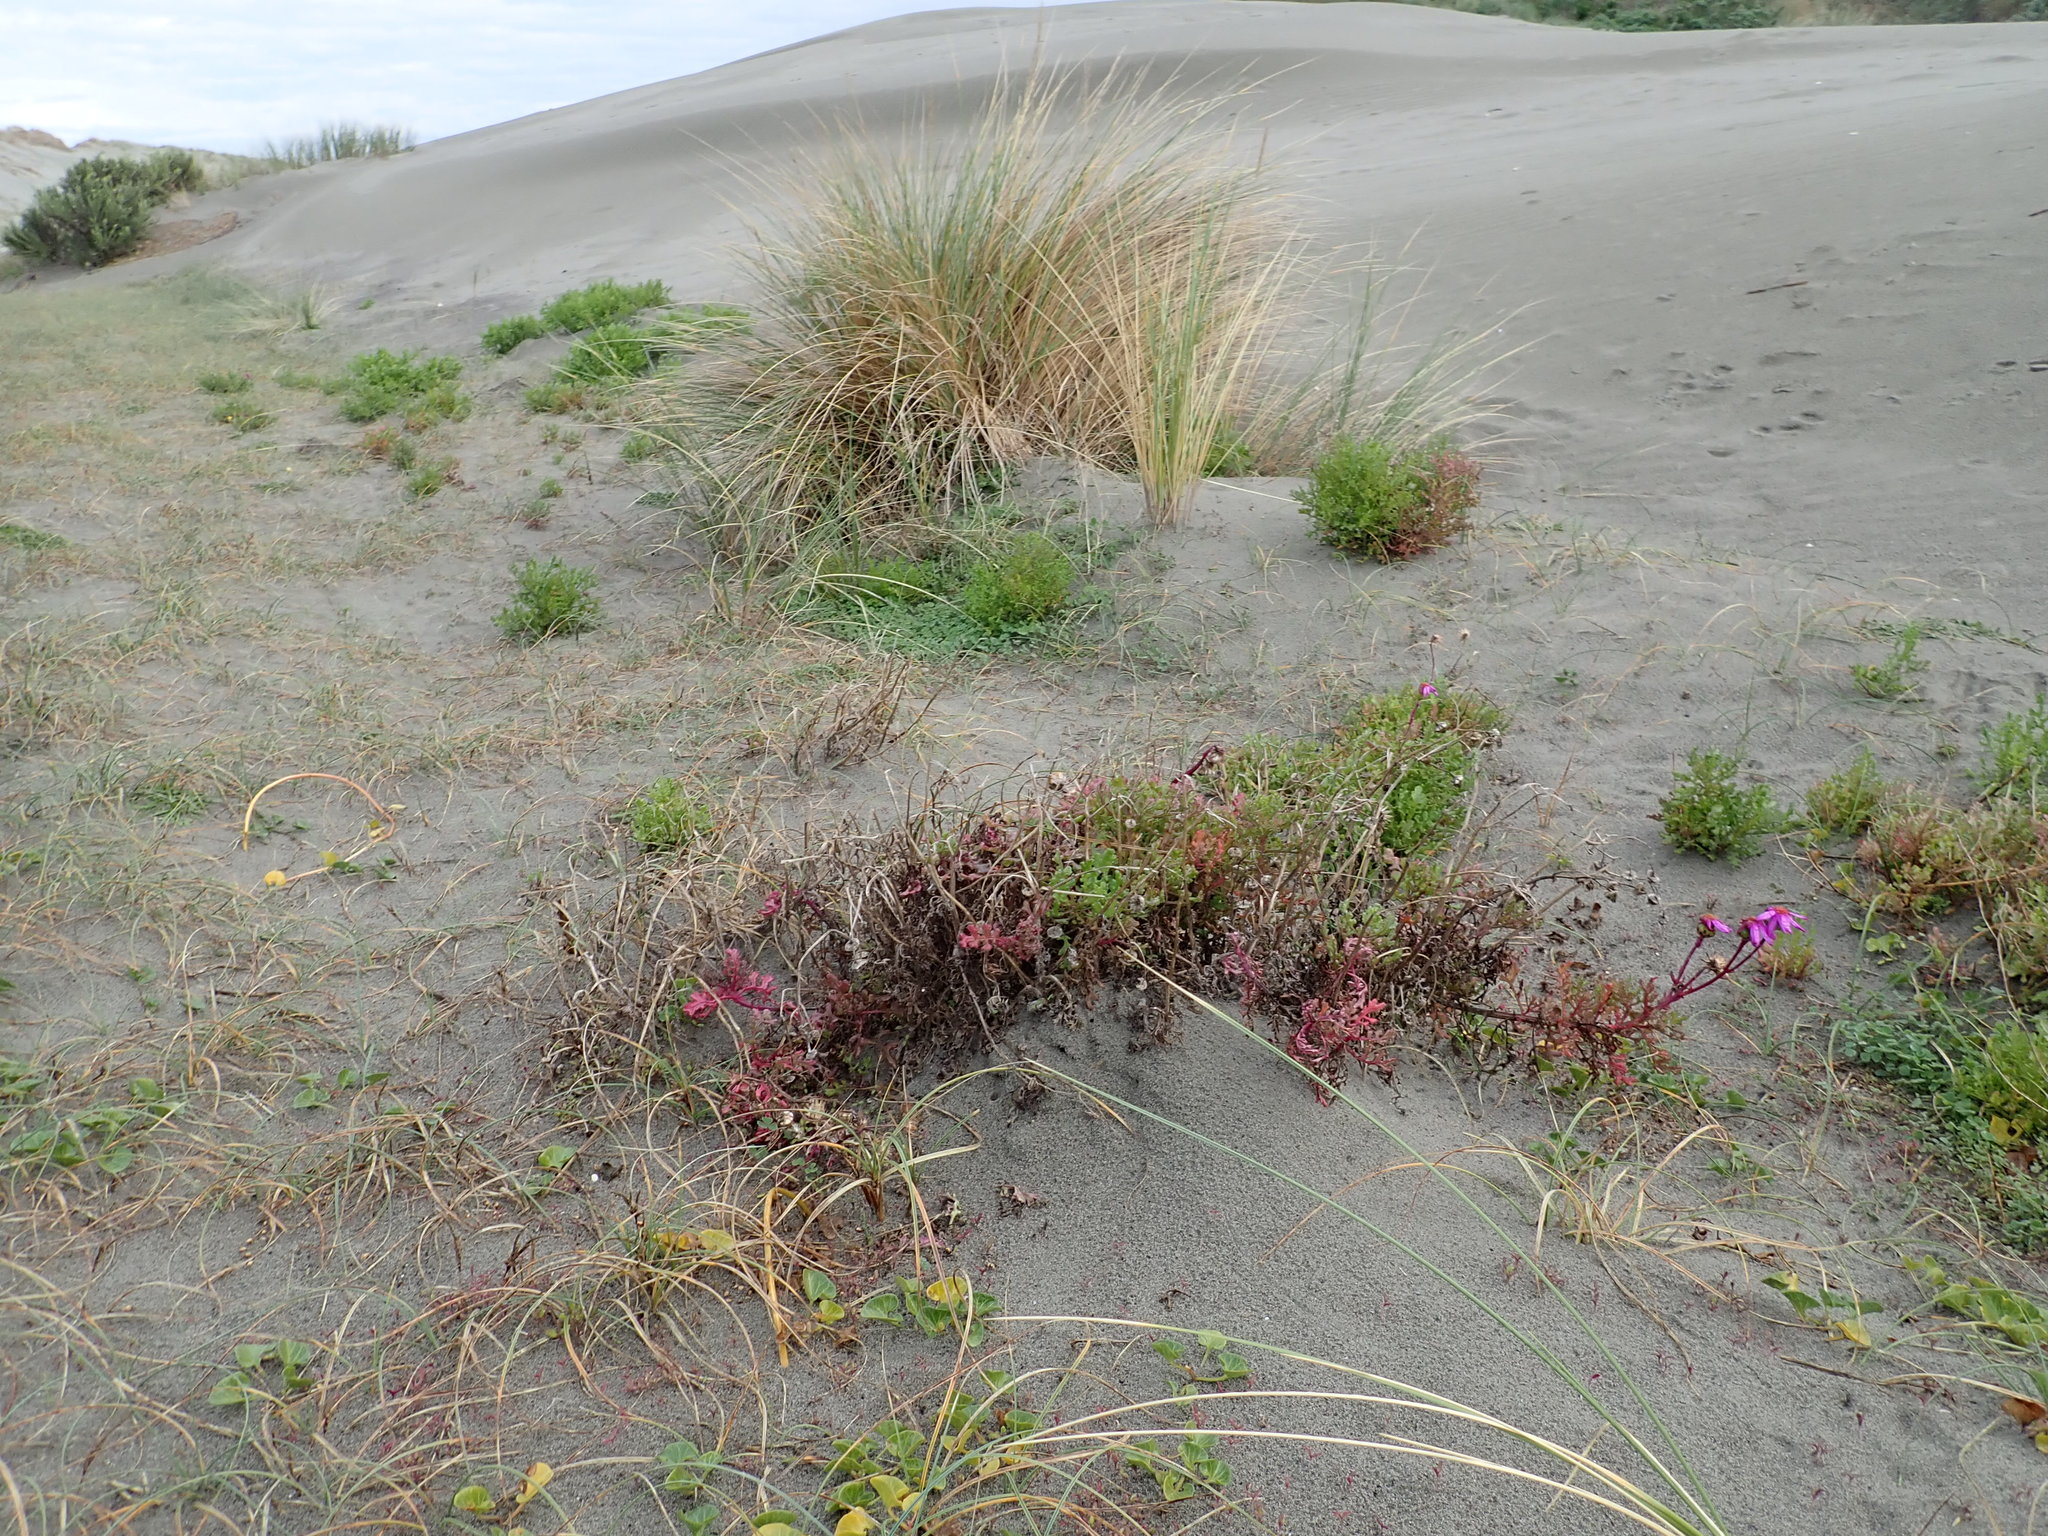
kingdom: Plantae
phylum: Tracheophyta
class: Magnoliopsida
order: Asterales
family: Asteraceae
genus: Senecio
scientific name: Senecio elegans
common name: Purple groundsel
